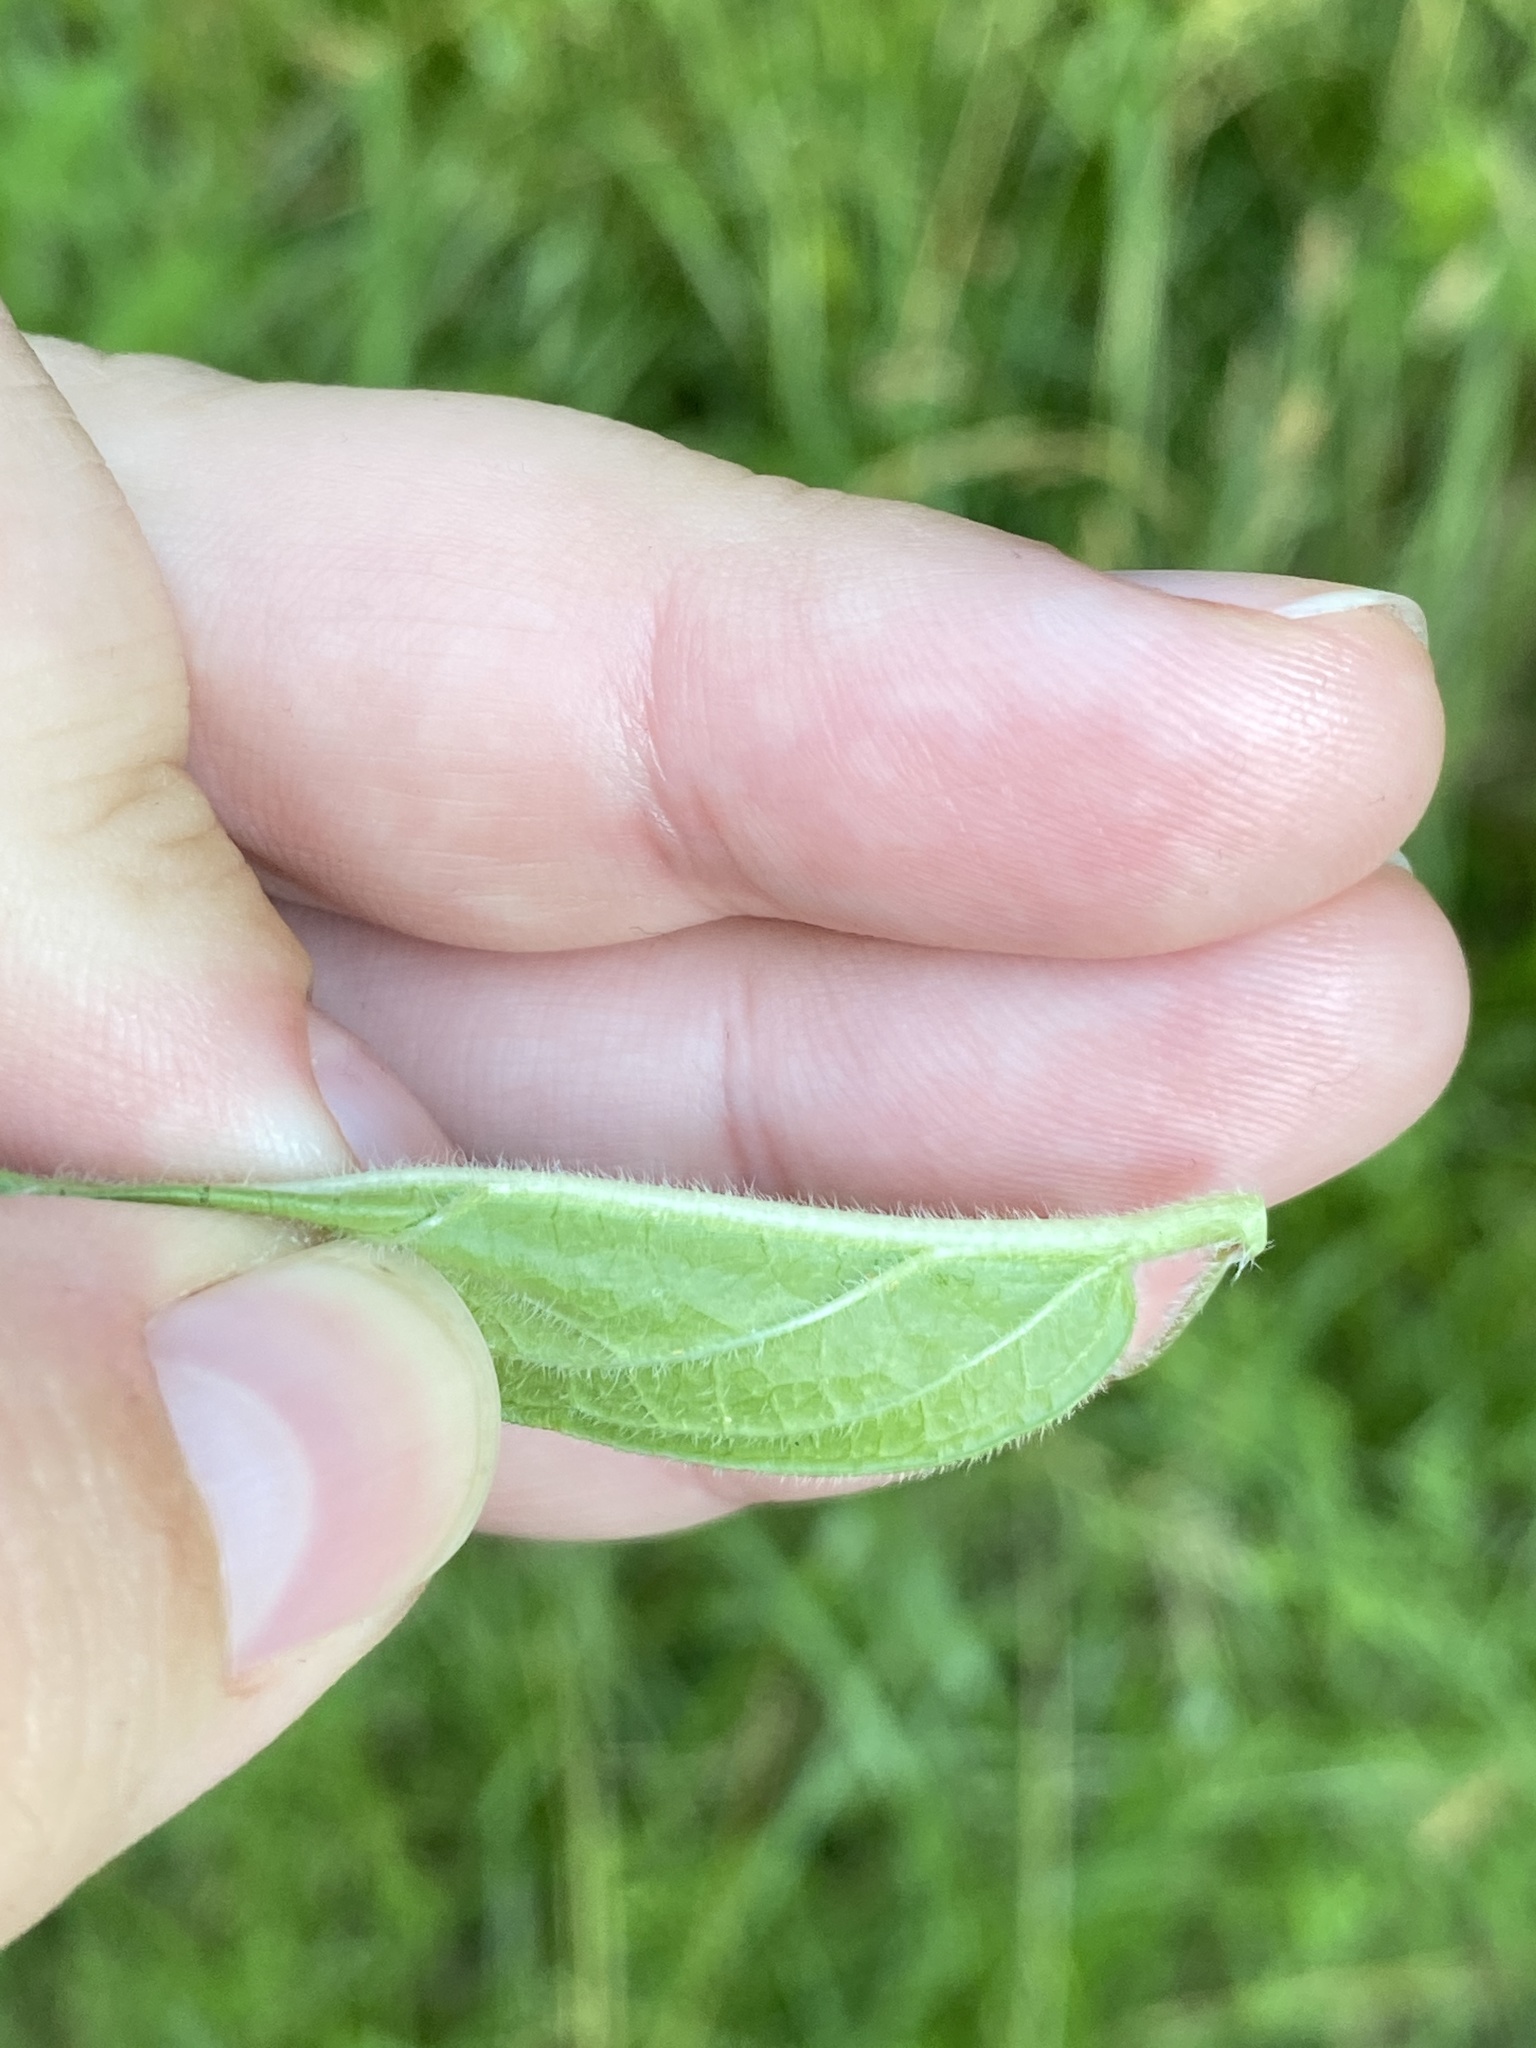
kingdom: Plantae
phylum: Tracheophyta
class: Magnoliopsida
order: Gentianales
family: Apocynaceae
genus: Asclepias
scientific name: Asclepias incarnata
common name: Swamp milkweed
